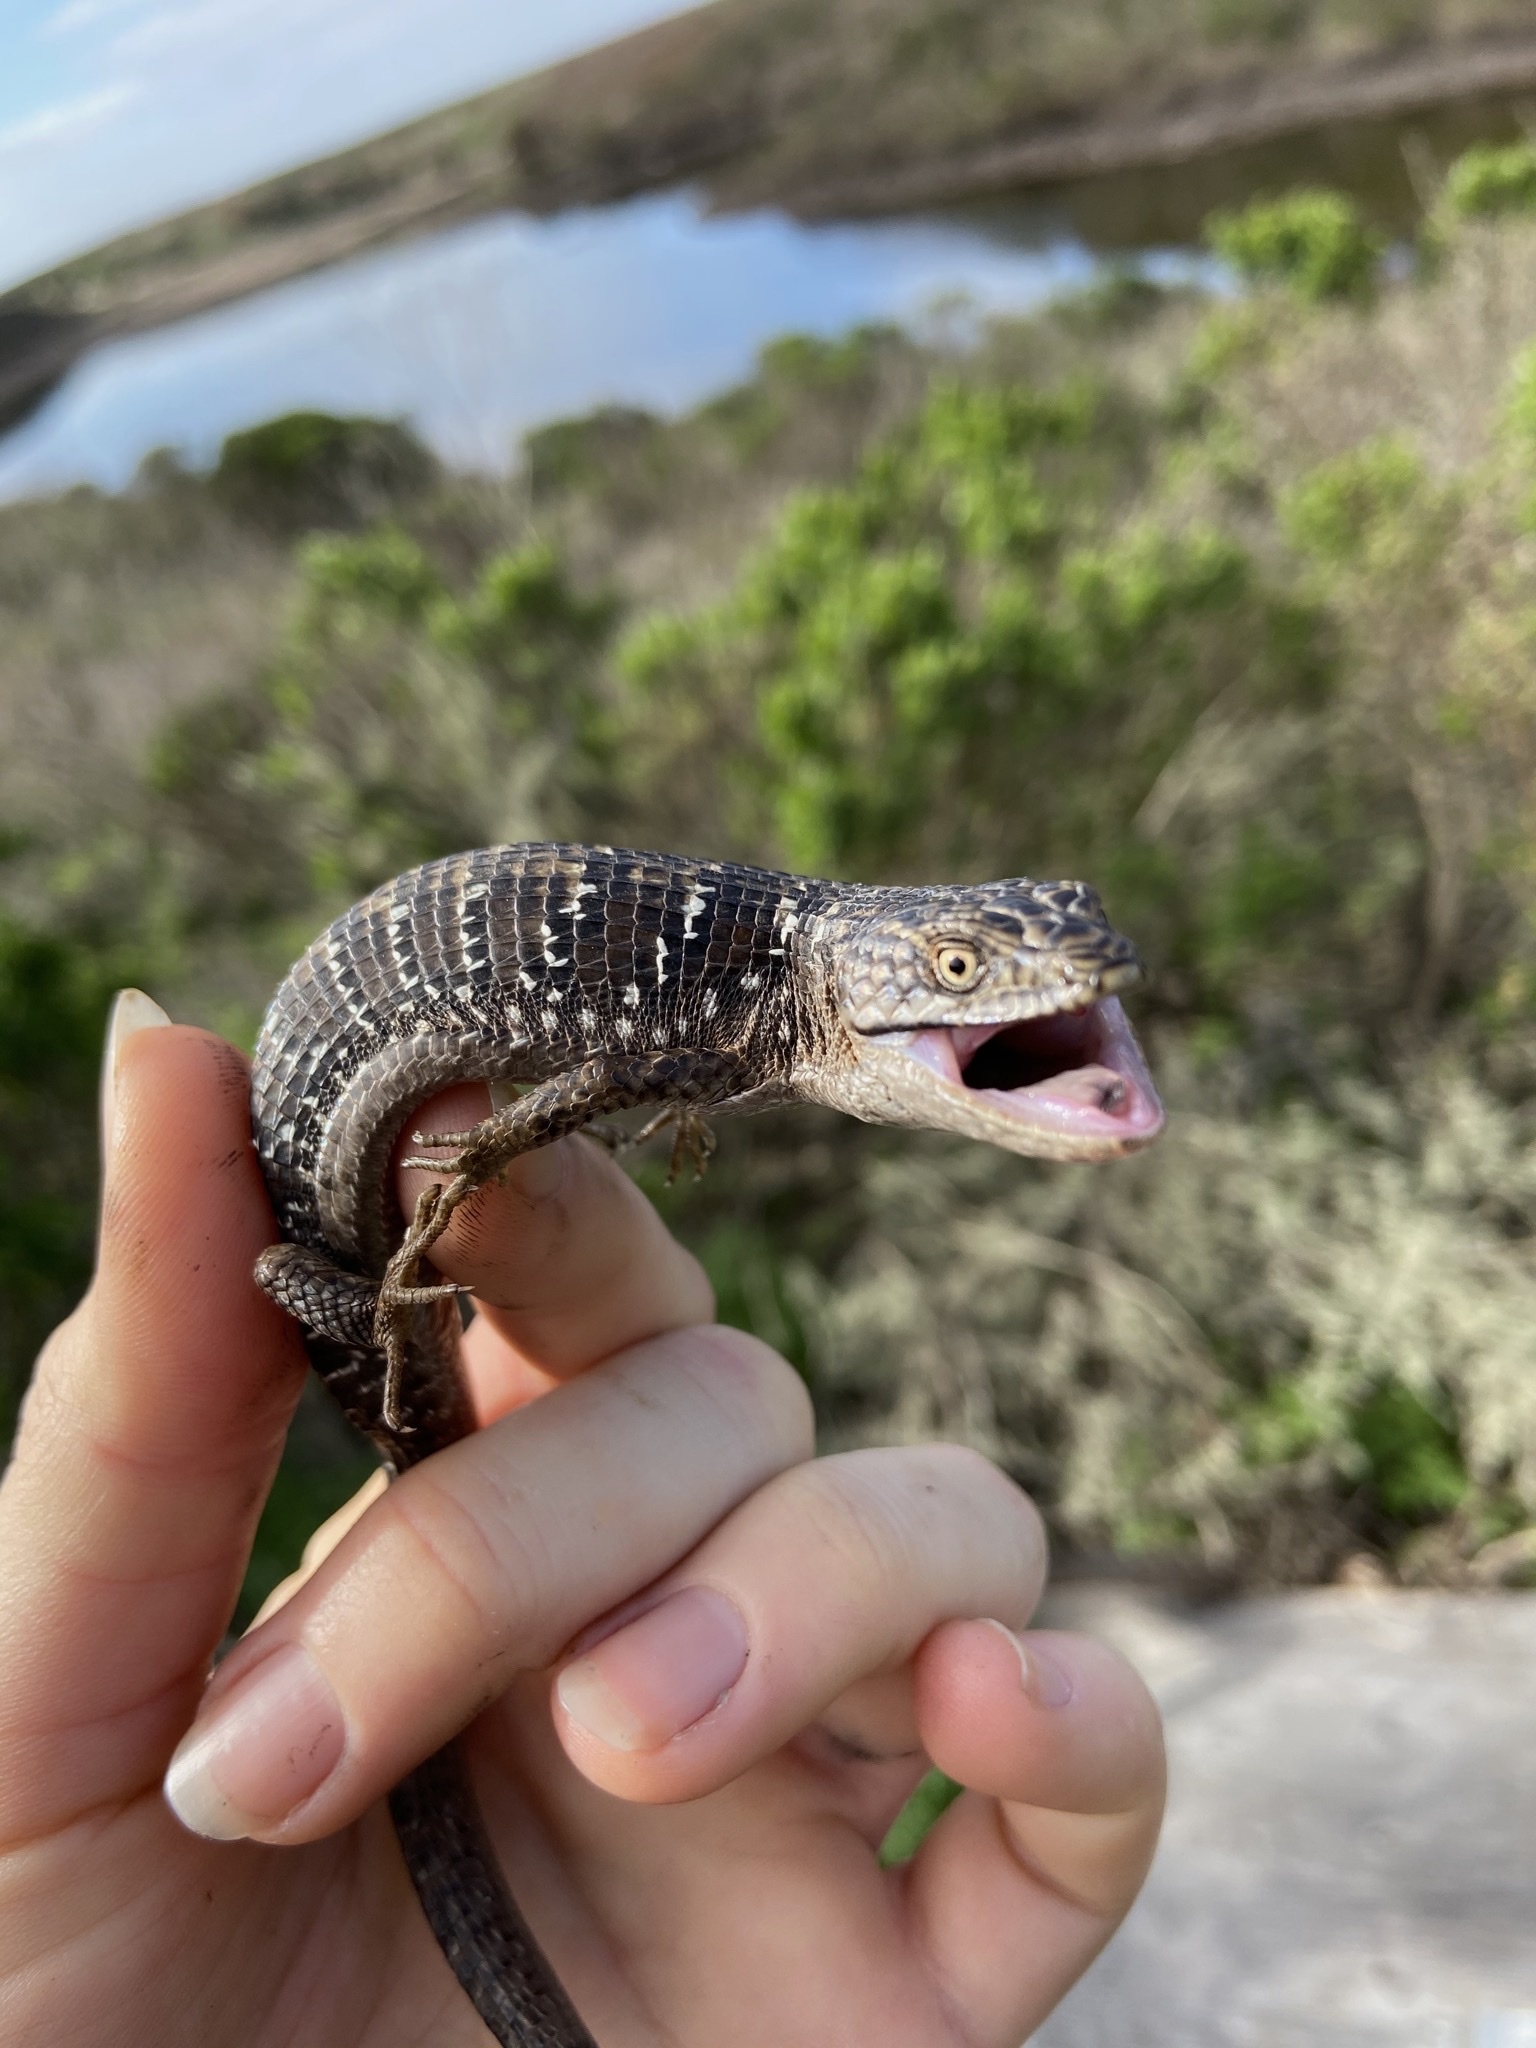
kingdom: Animalia
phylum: Chordata
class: Squamata
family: Anguidae
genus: Elgaria
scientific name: Elgaria multicarinata
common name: Southern alligator lizard
